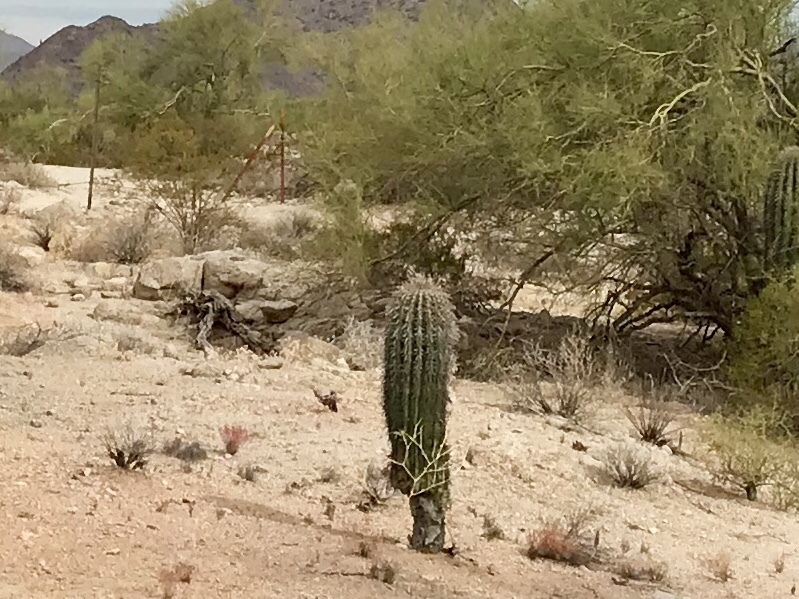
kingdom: Plantae
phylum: Tracheophyta
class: Magnoliopsida
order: Caryophyllales
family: Cactaceae
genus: Carnegiea
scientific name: Carnegiea gigantea
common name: Saguaro
